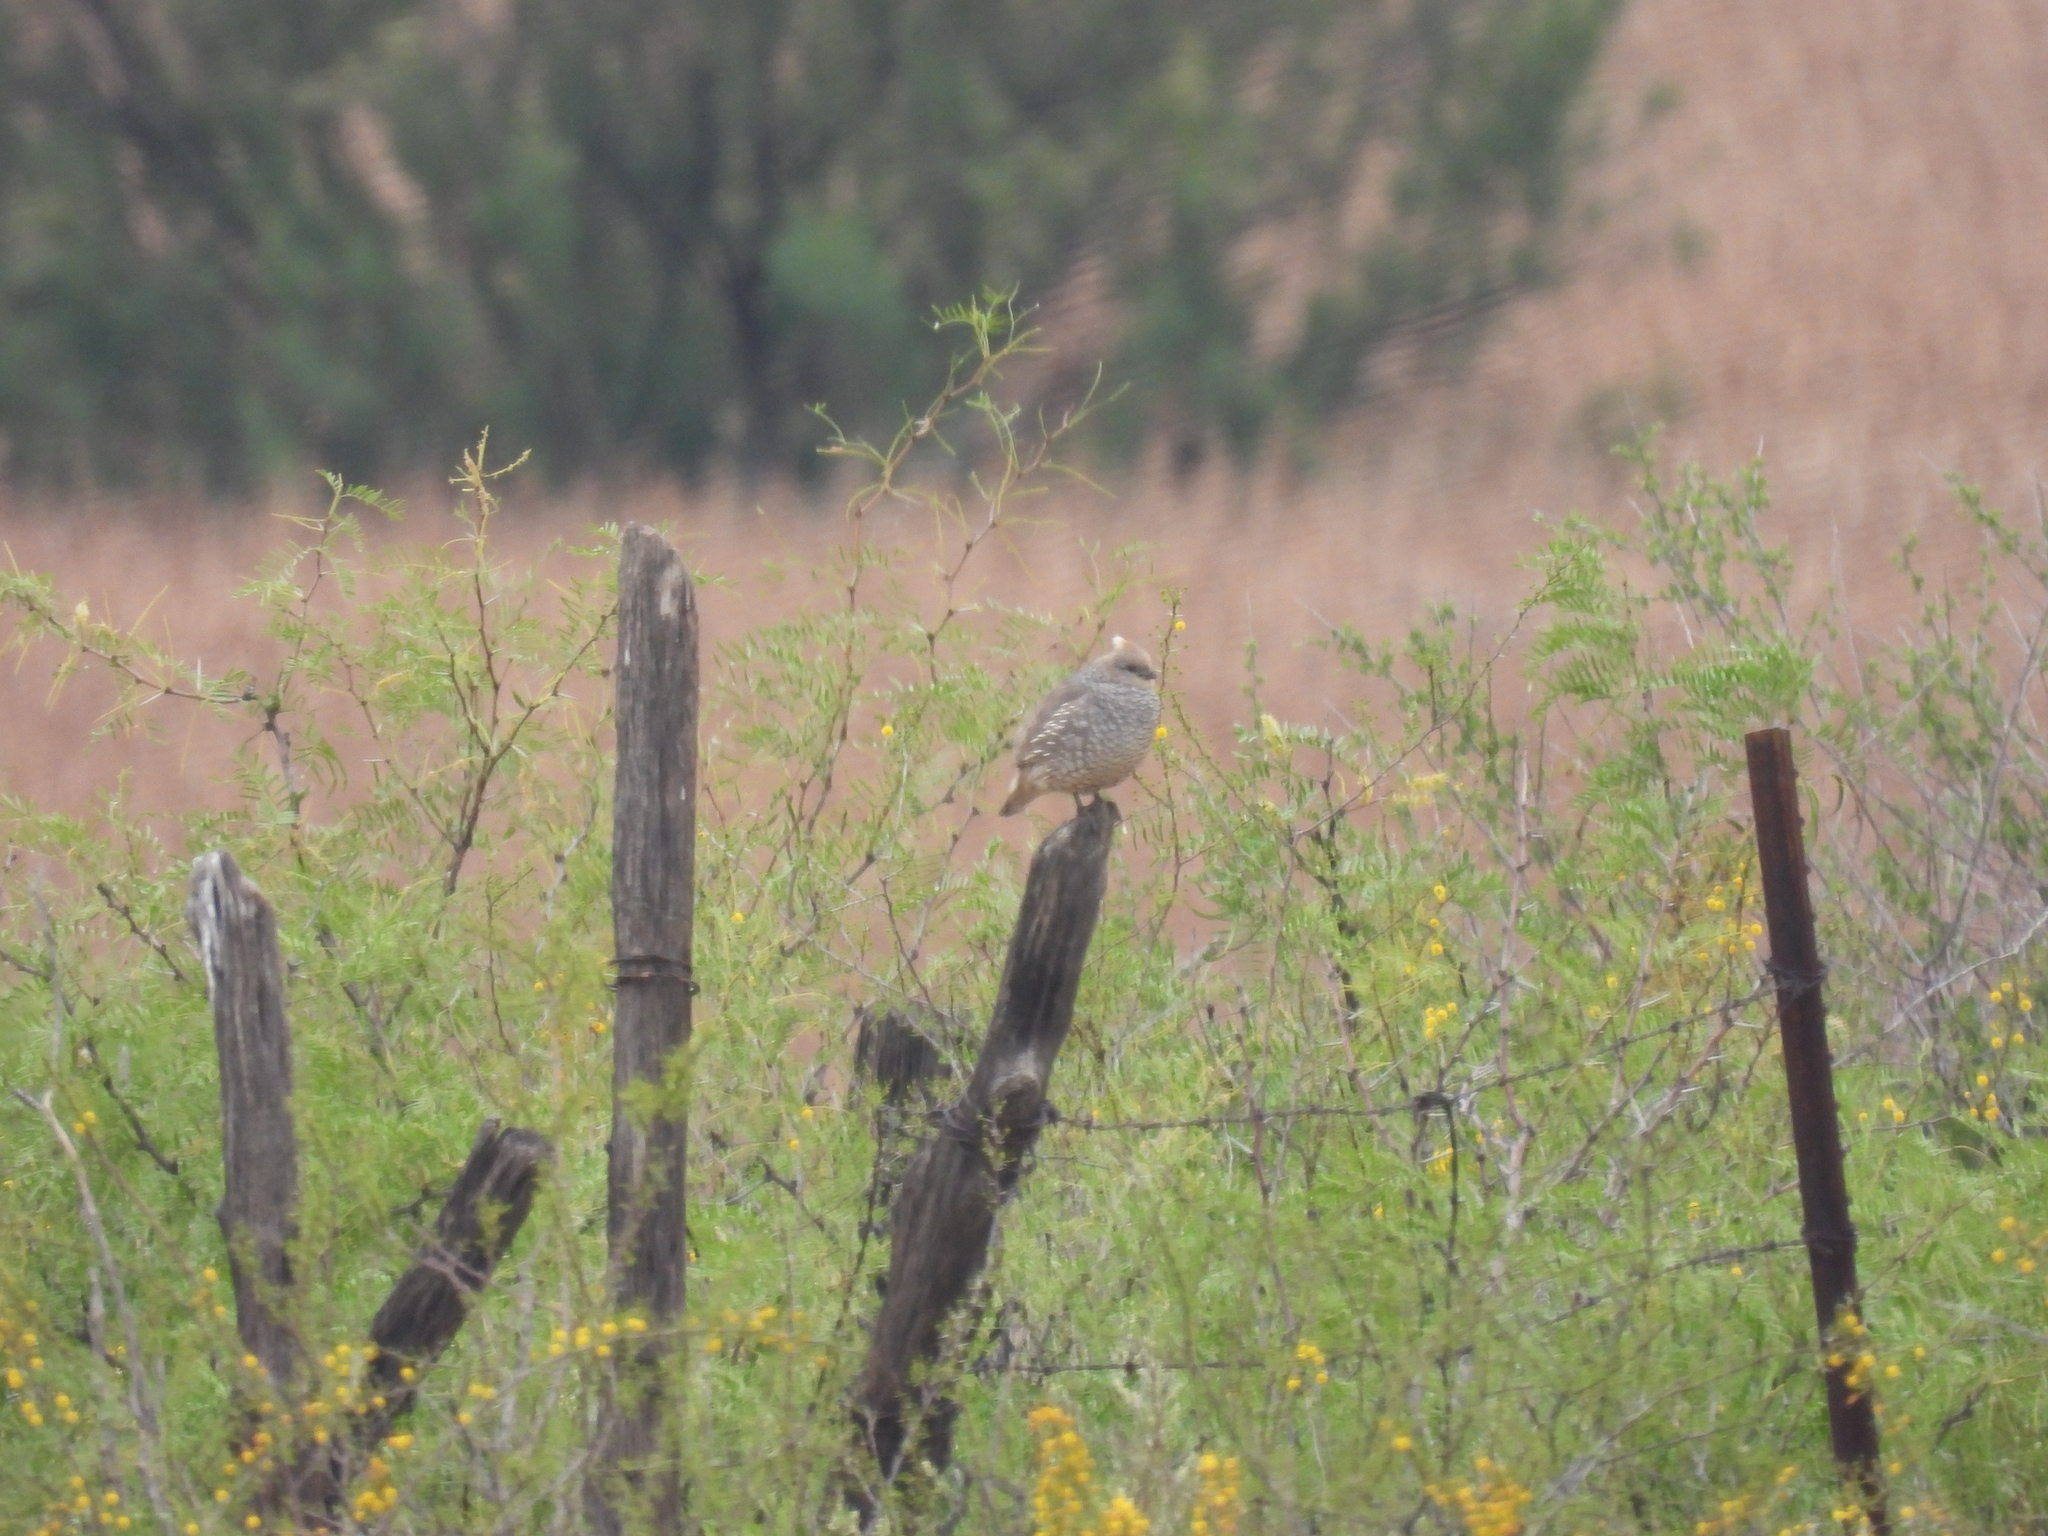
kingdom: Animalia
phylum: Chordata
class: Aves
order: Galliformes
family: Odontophoridae
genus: Callipepla
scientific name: Callipepla squamata
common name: Scaled quail
